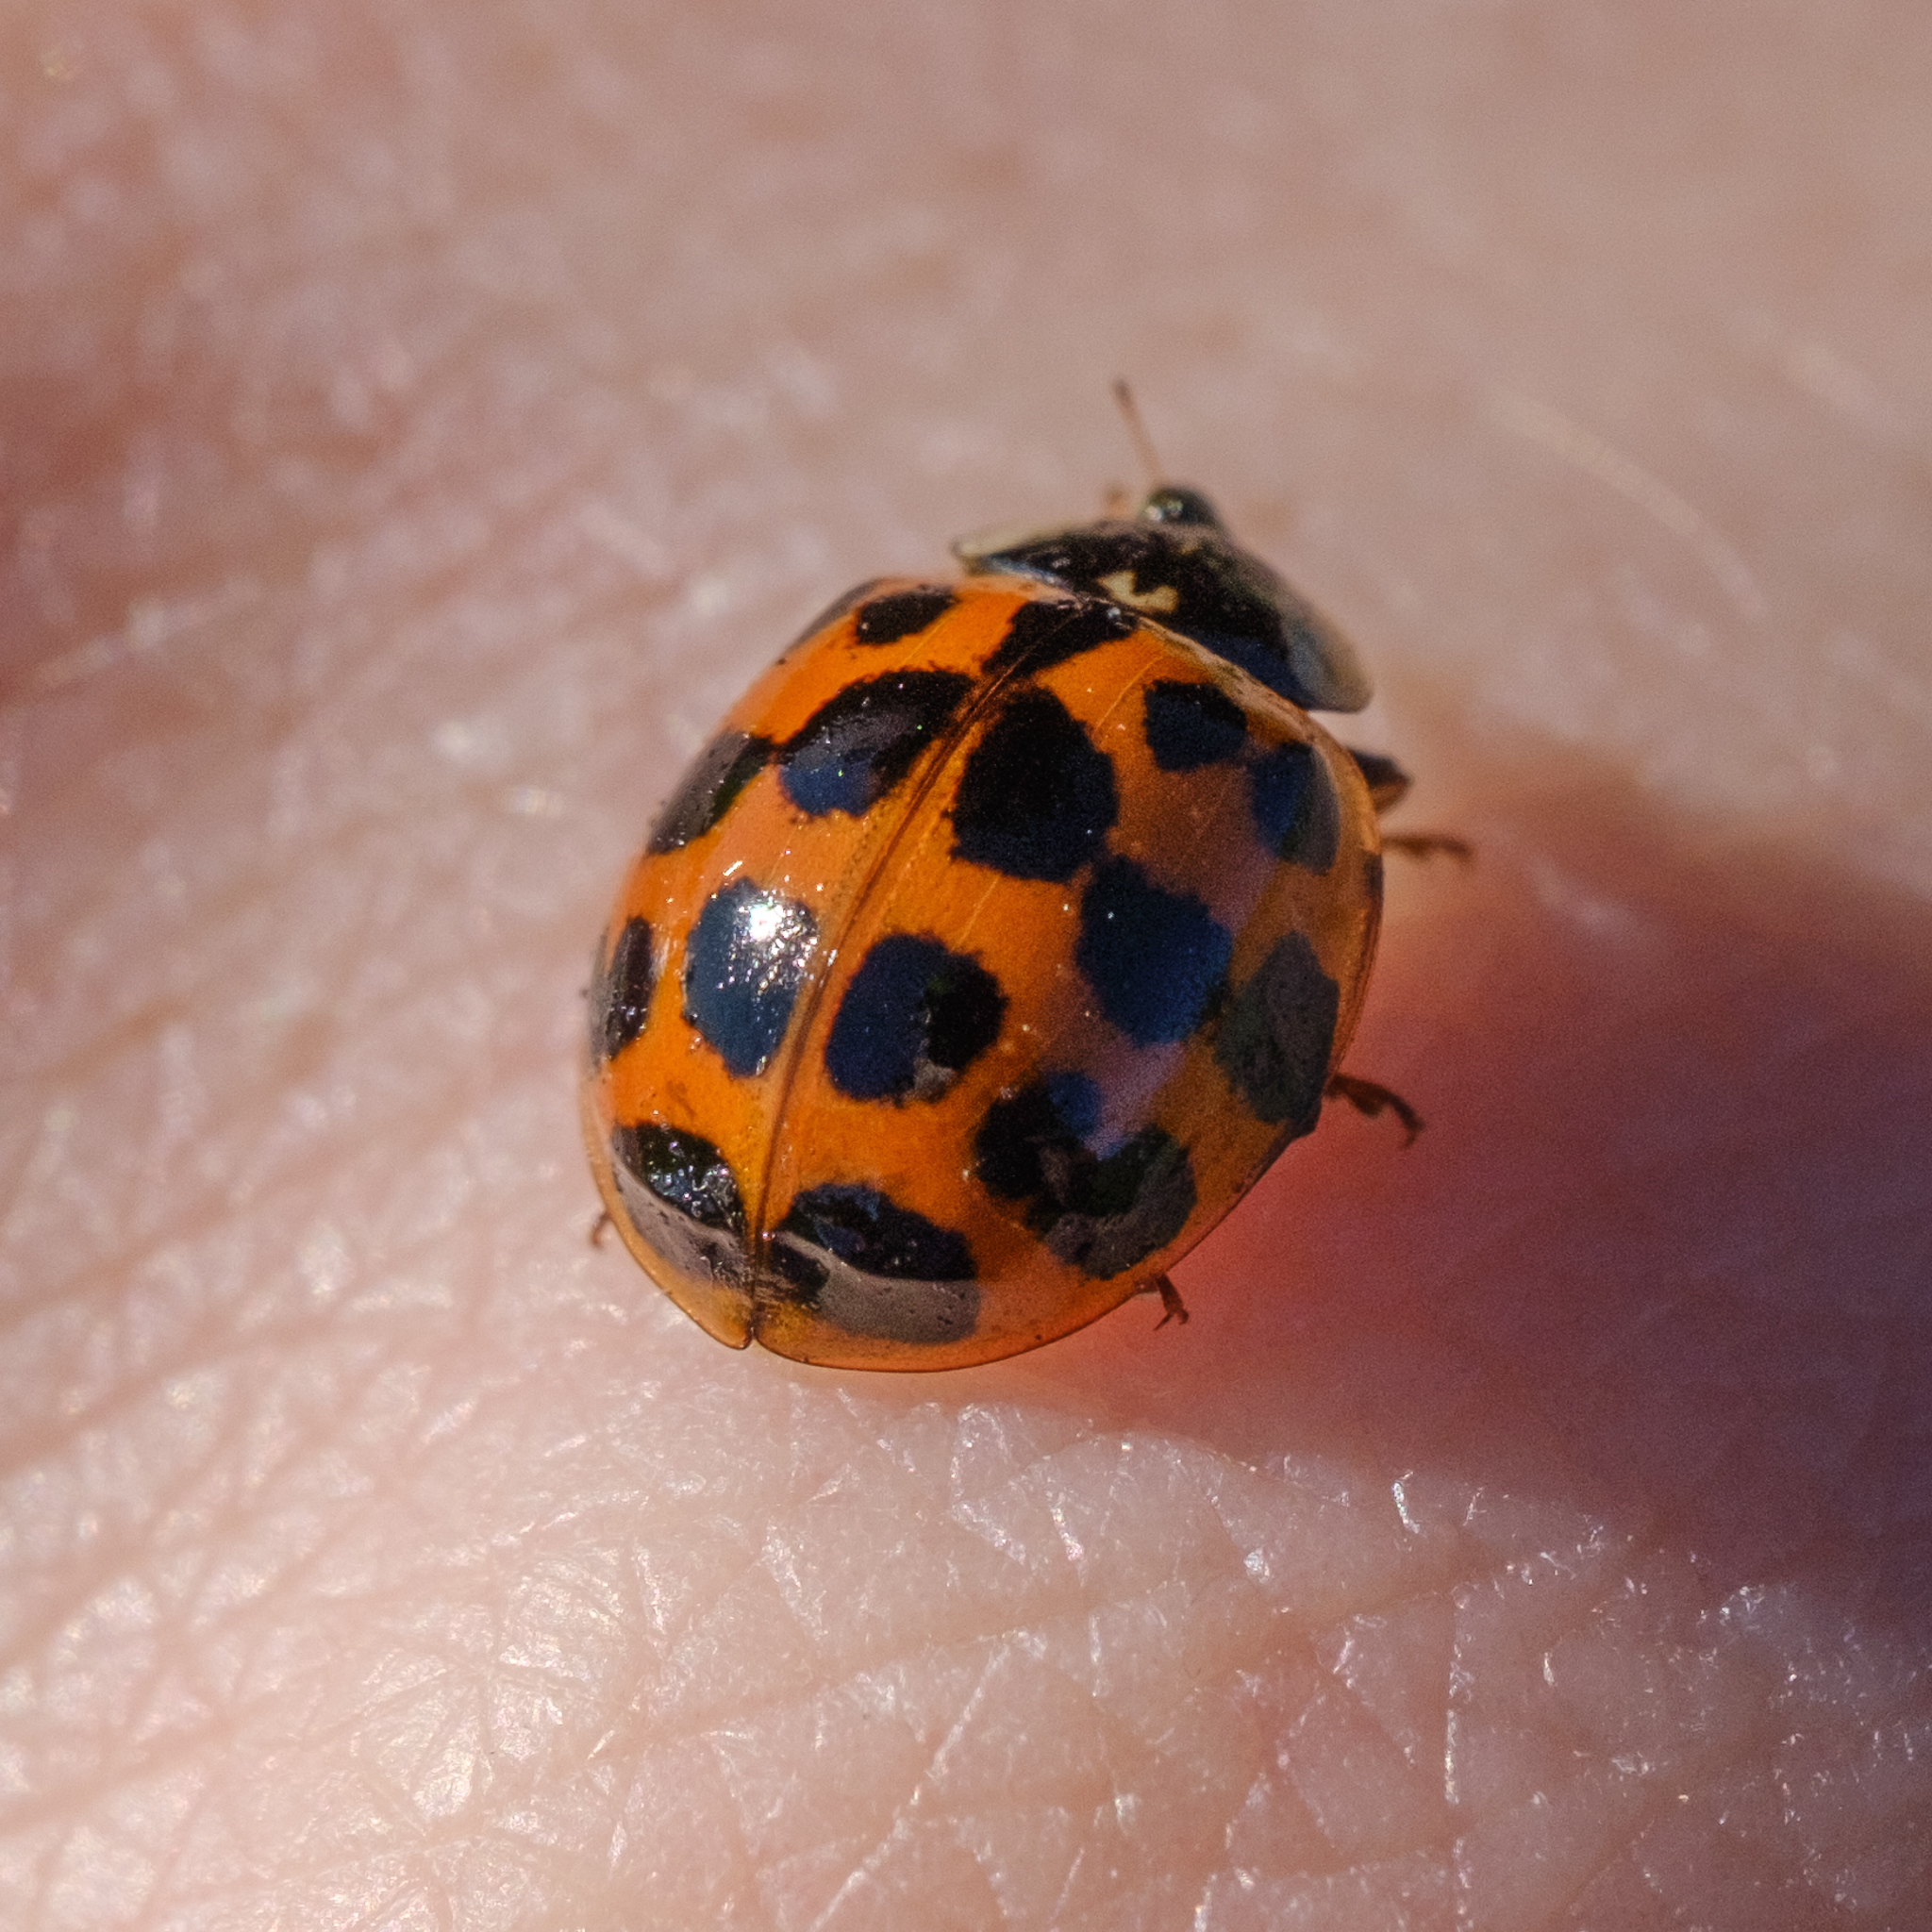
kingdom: Animalia
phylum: Arthropoda
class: Insecta
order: Coleoptera
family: Coccinellidae
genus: Harmonia
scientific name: Harmonia axyridis
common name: Harlequin ladybird
